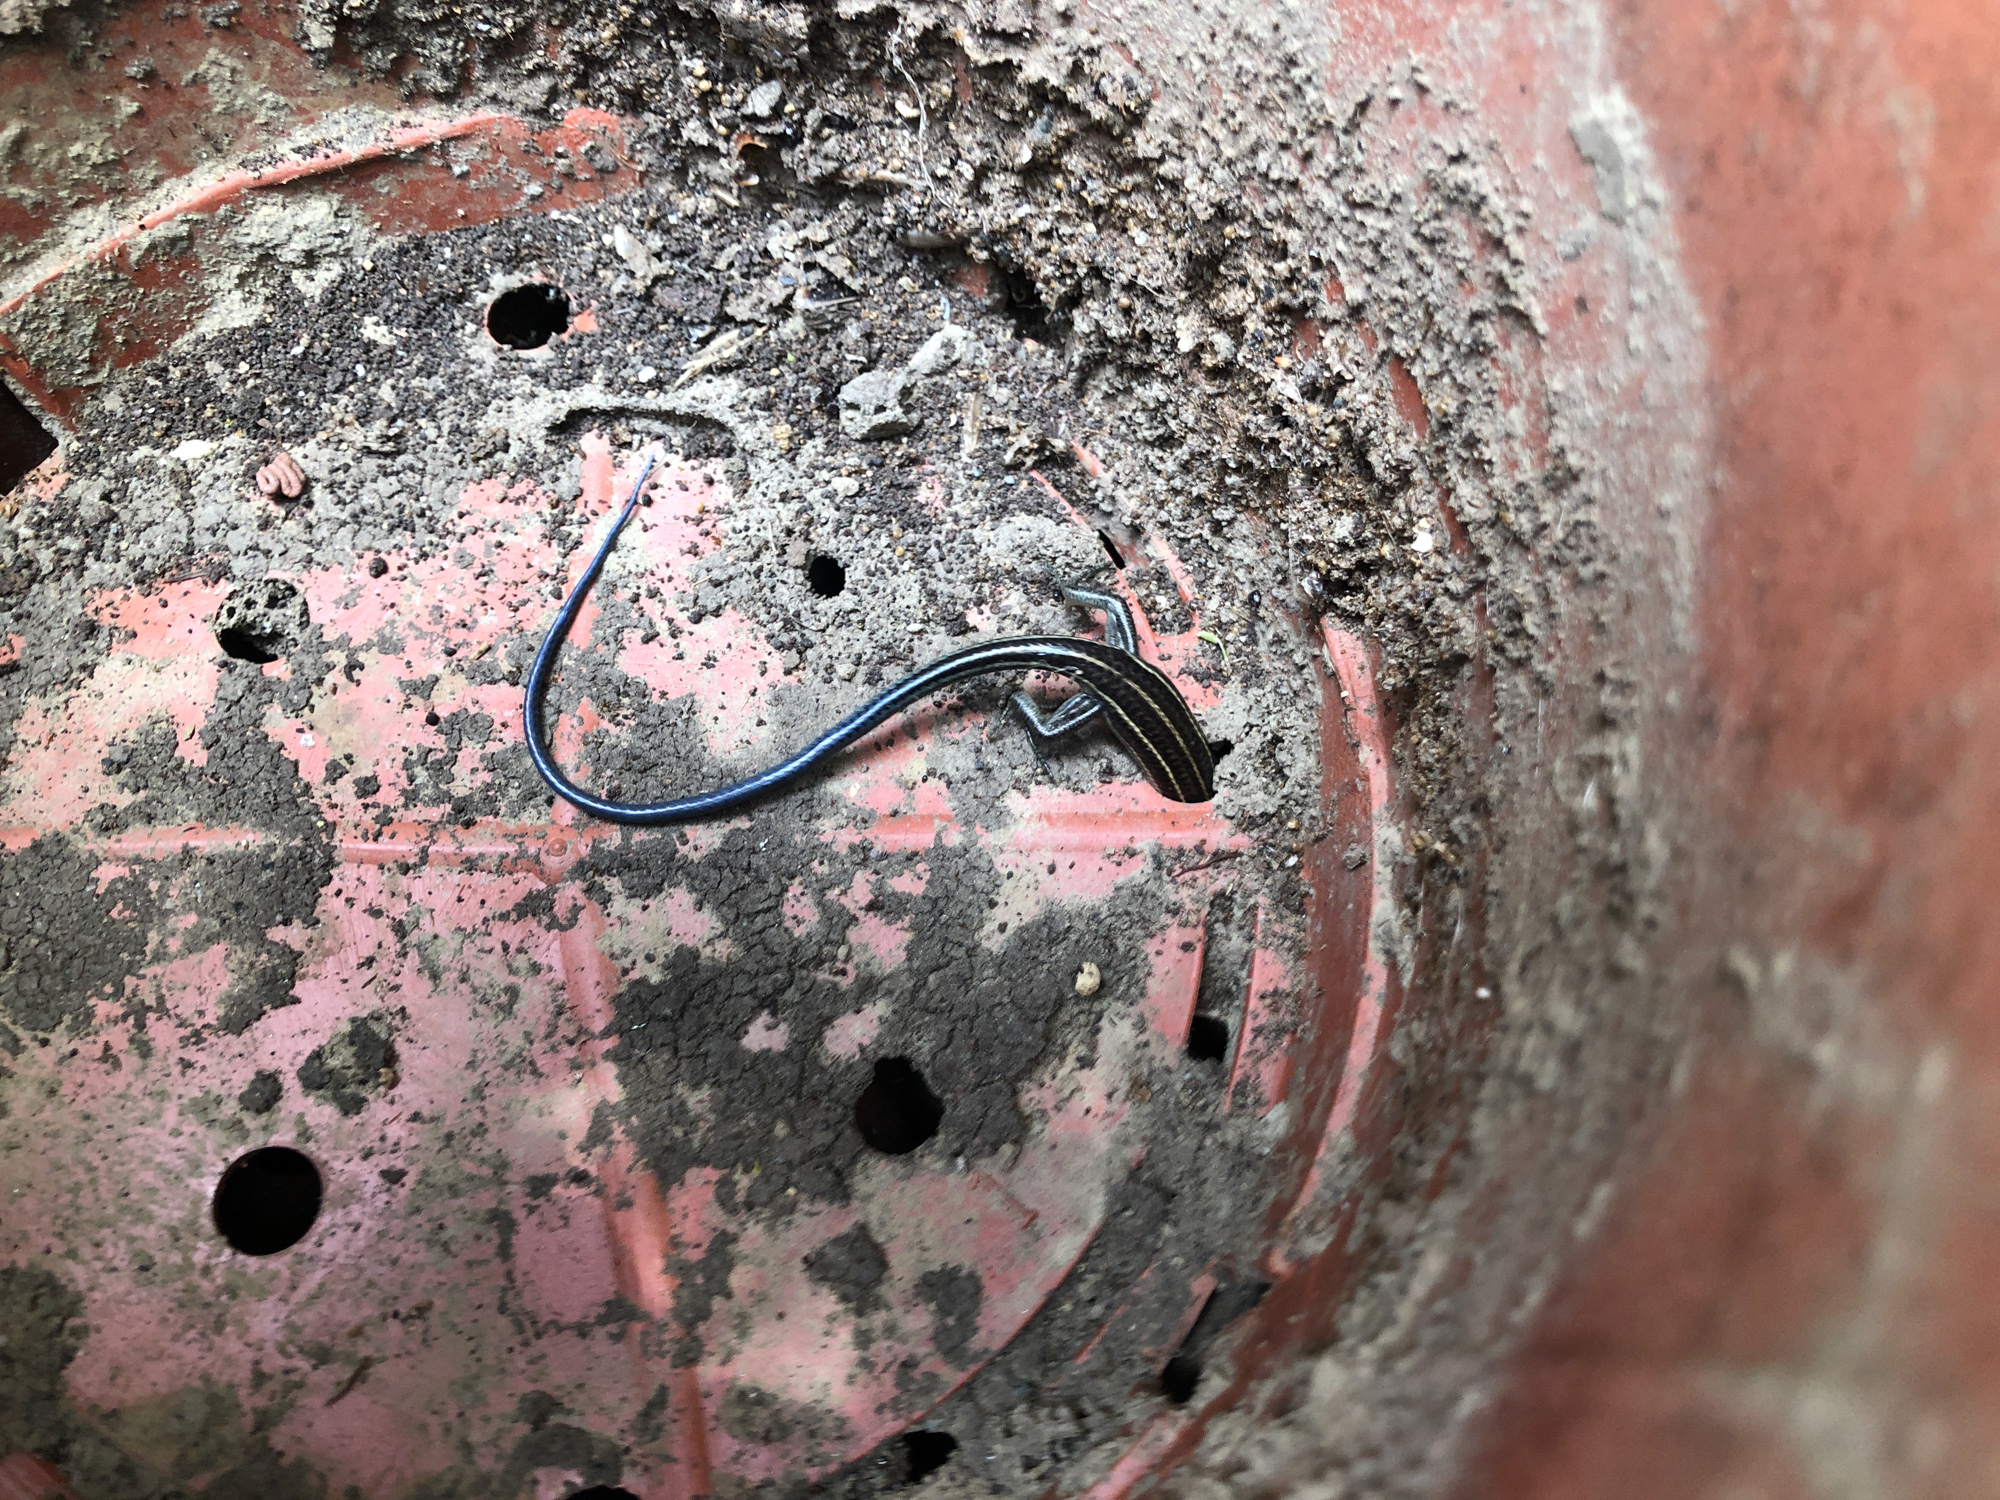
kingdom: Animalia
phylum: Chordata
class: Squamata
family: Scincidae
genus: Plestiodon
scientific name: Plestiodon elegans
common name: Shanghai elegant skink
